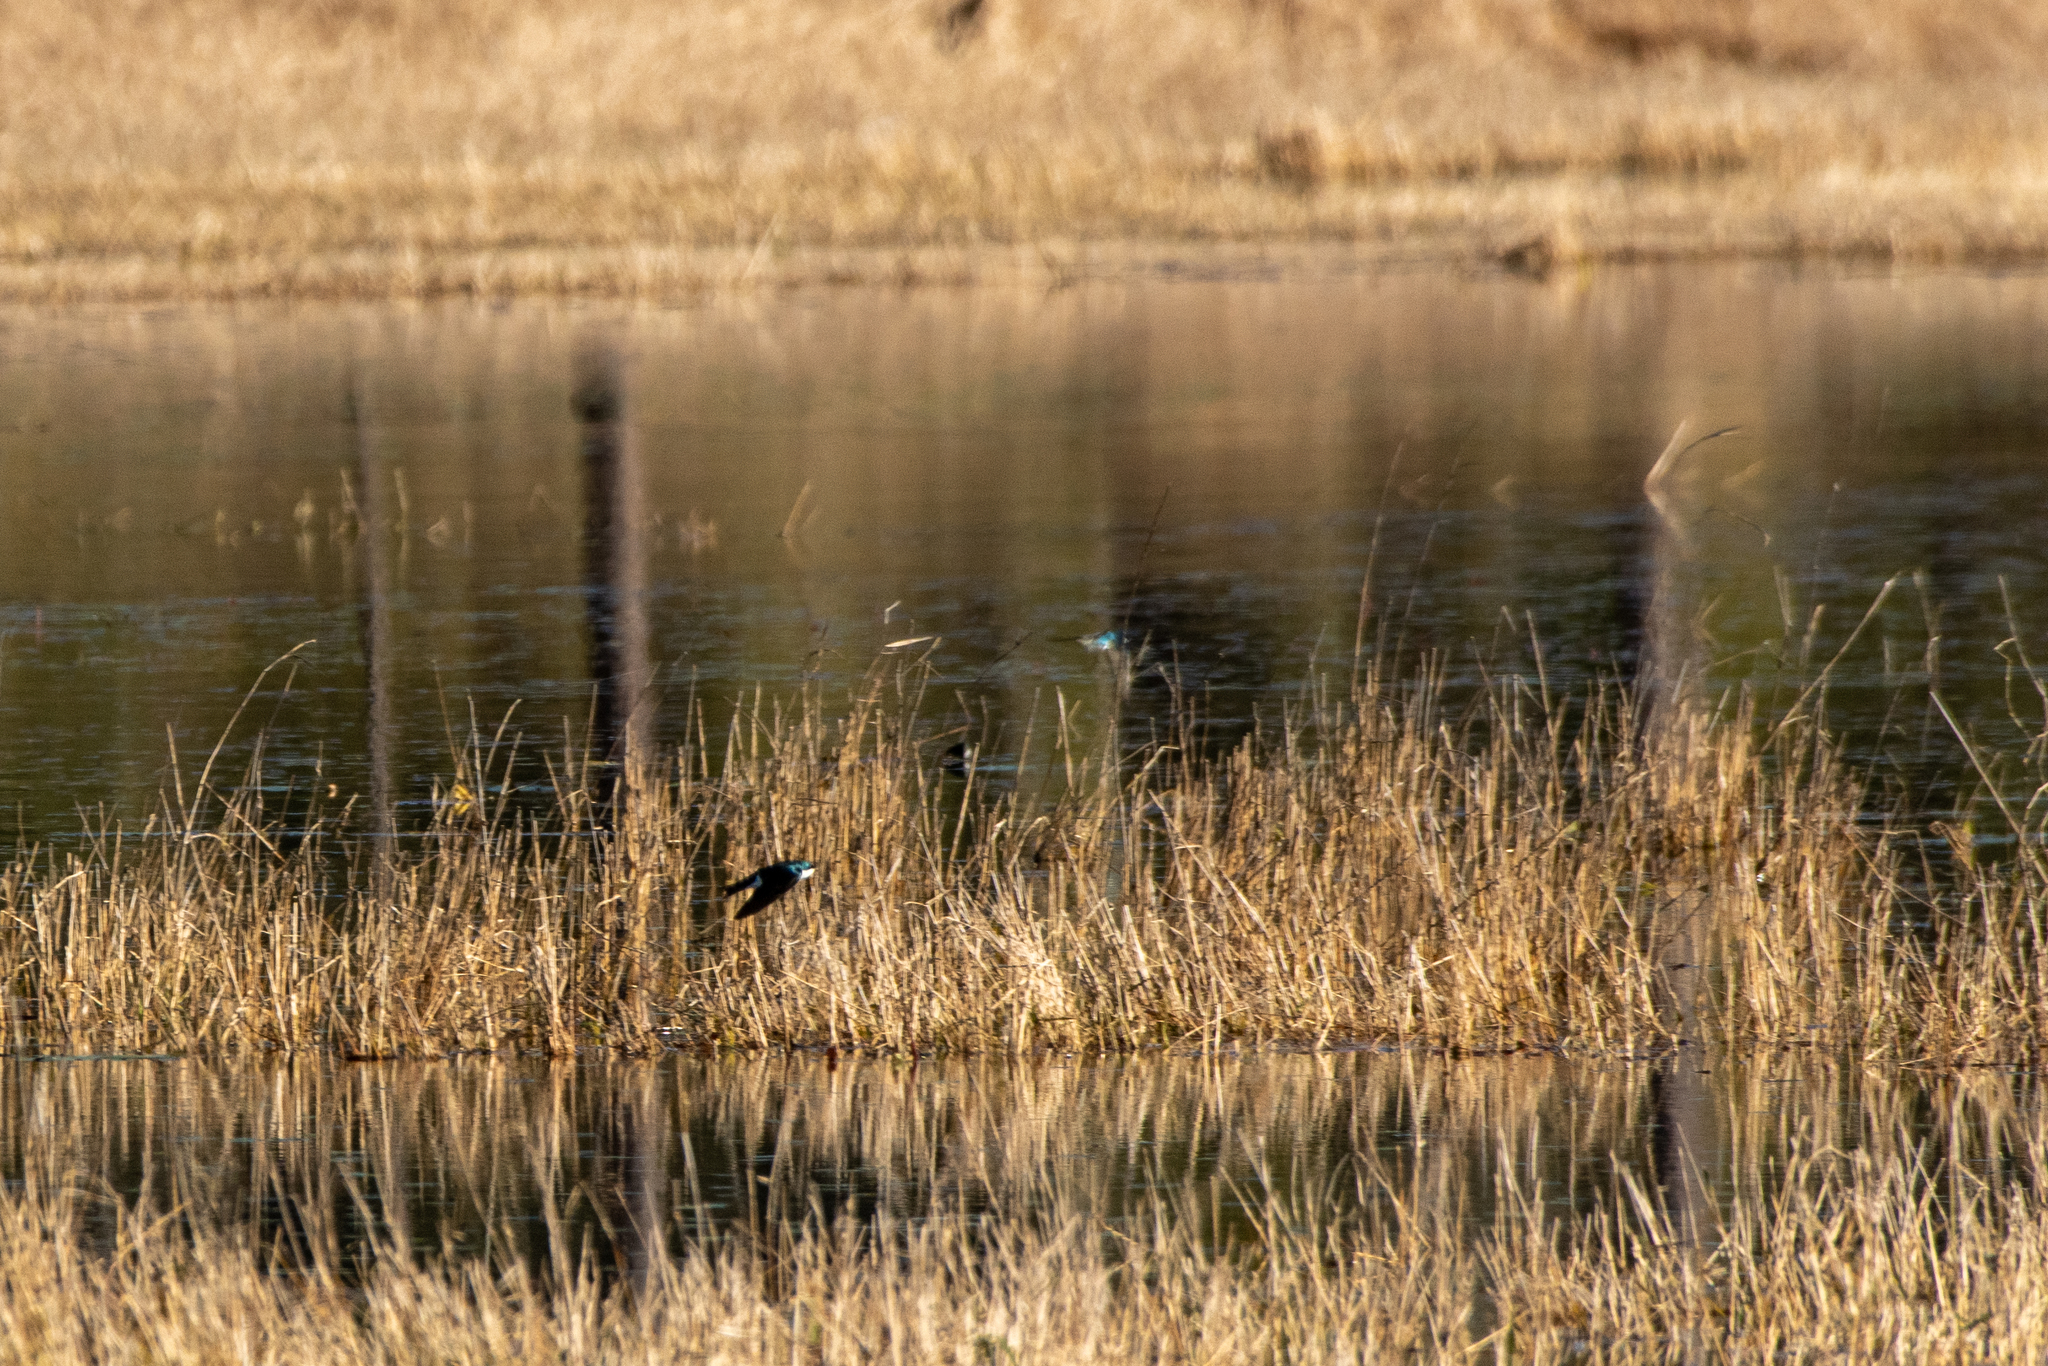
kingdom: Animalia
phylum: Chordata
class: Aves
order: Passeriformes
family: Hirundinidae
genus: Tachycineta
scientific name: Tachycineta bicolor
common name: Tree swallow
